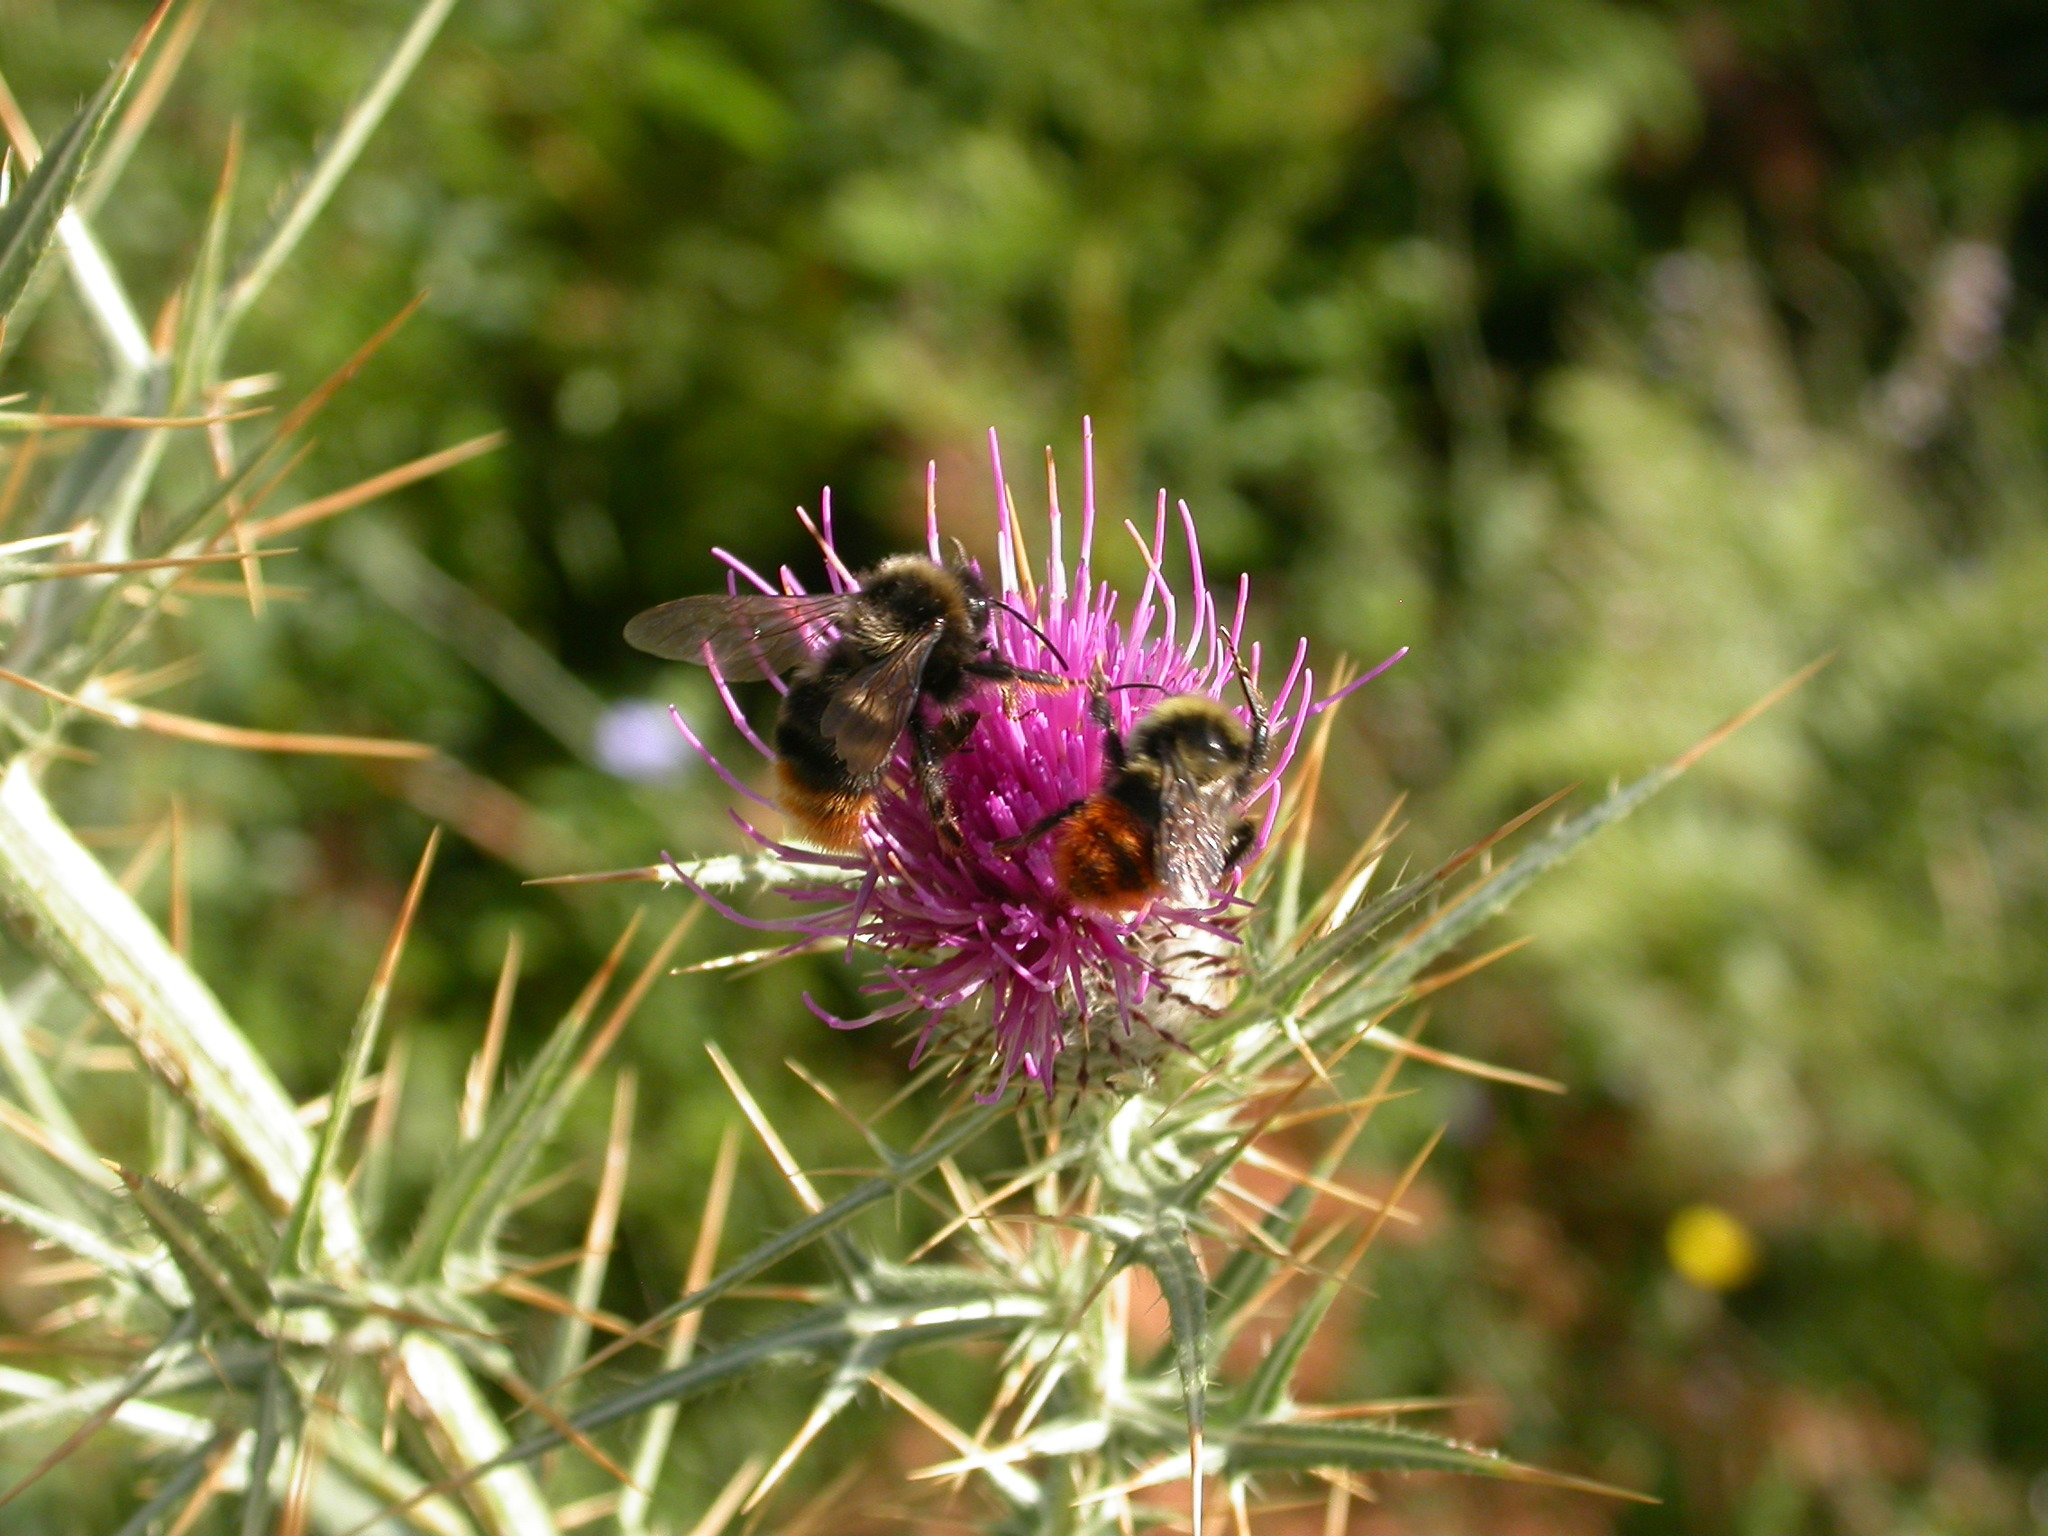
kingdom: Animalia
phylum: Arthropoda
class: Insecta
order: Hymenoptera
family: Apidae
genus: Bombus
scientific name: Bombus rupestris
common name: Hill cuckoo-bee
